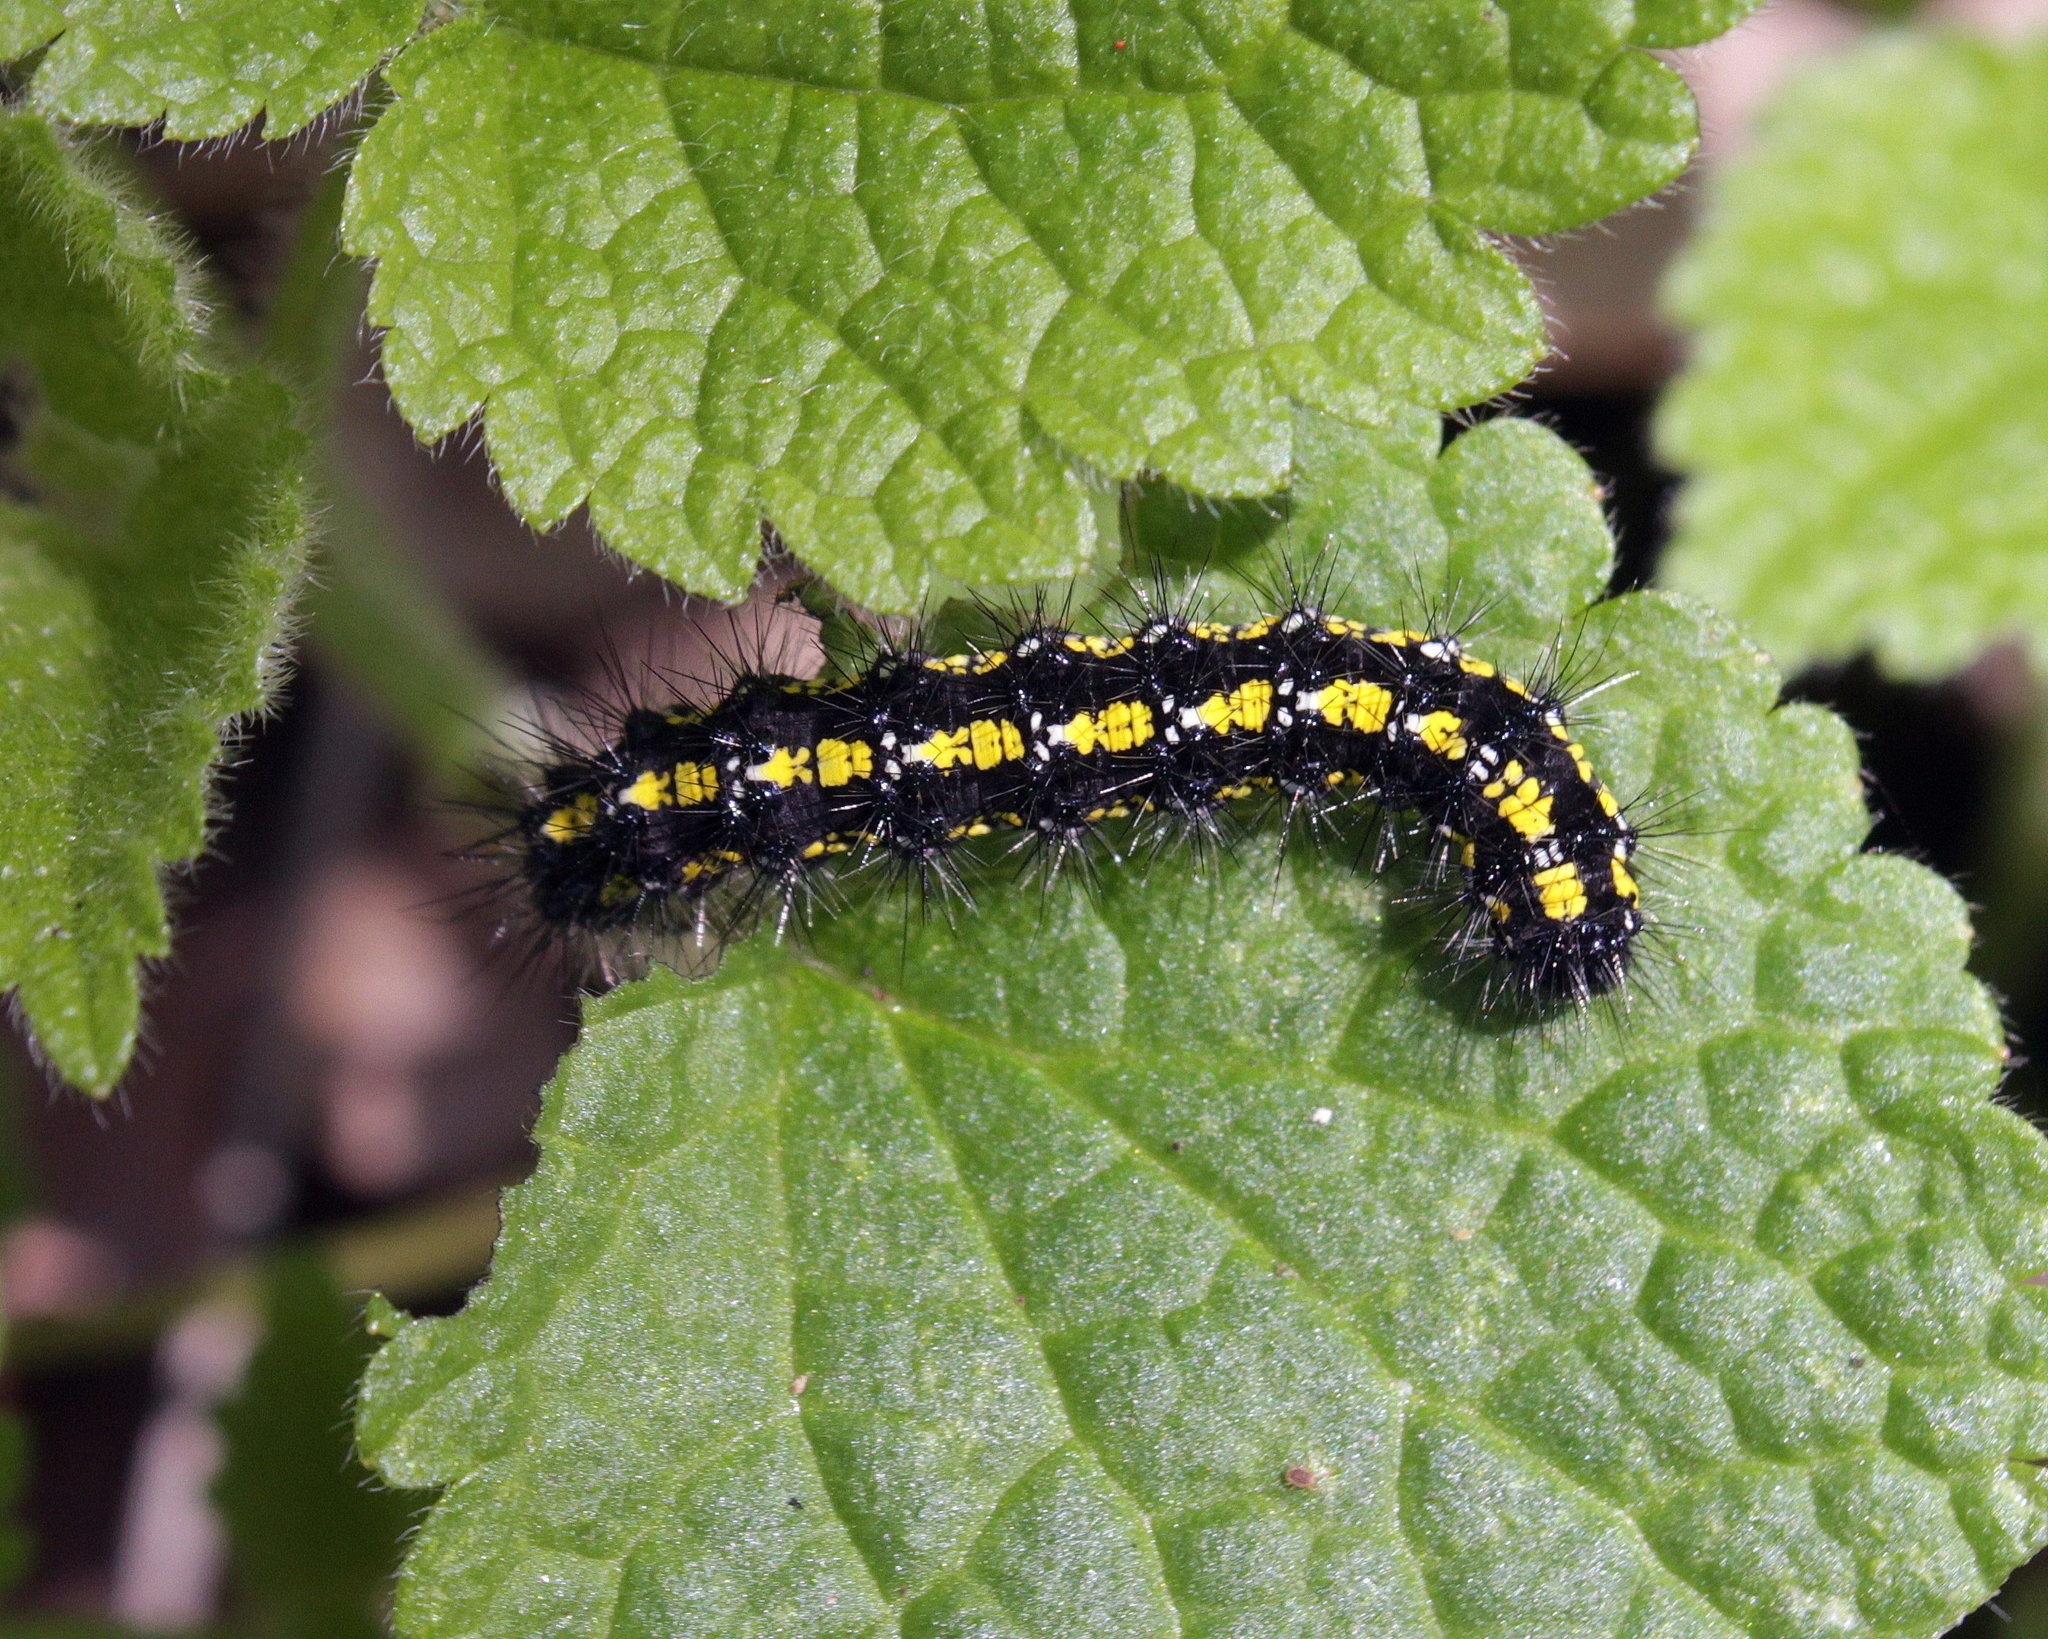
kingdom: Animalia
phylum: Arthropoda
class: Insecta
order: Lepidoptera
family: Erebidae
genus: Callimorpha
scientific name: Callimorpha dominula
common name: Scarlet tiger
